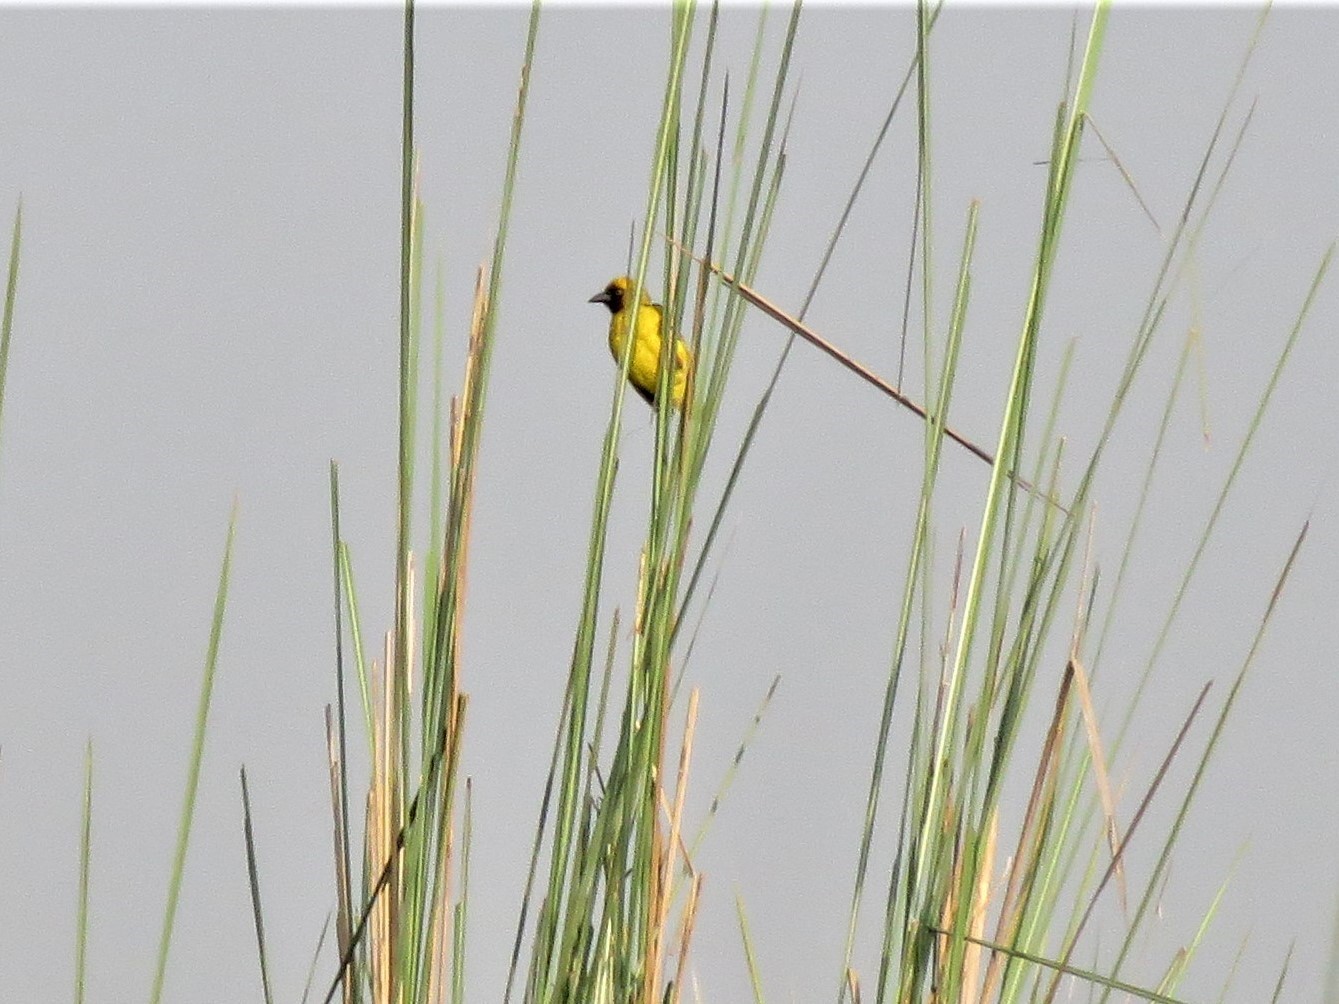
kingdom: Animalia
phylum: Chordata
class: Aves
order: Passeriformes
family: Ploceidae
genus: Ploceus
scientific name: Ploceus pelzelni
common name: Slender-billed weaver
